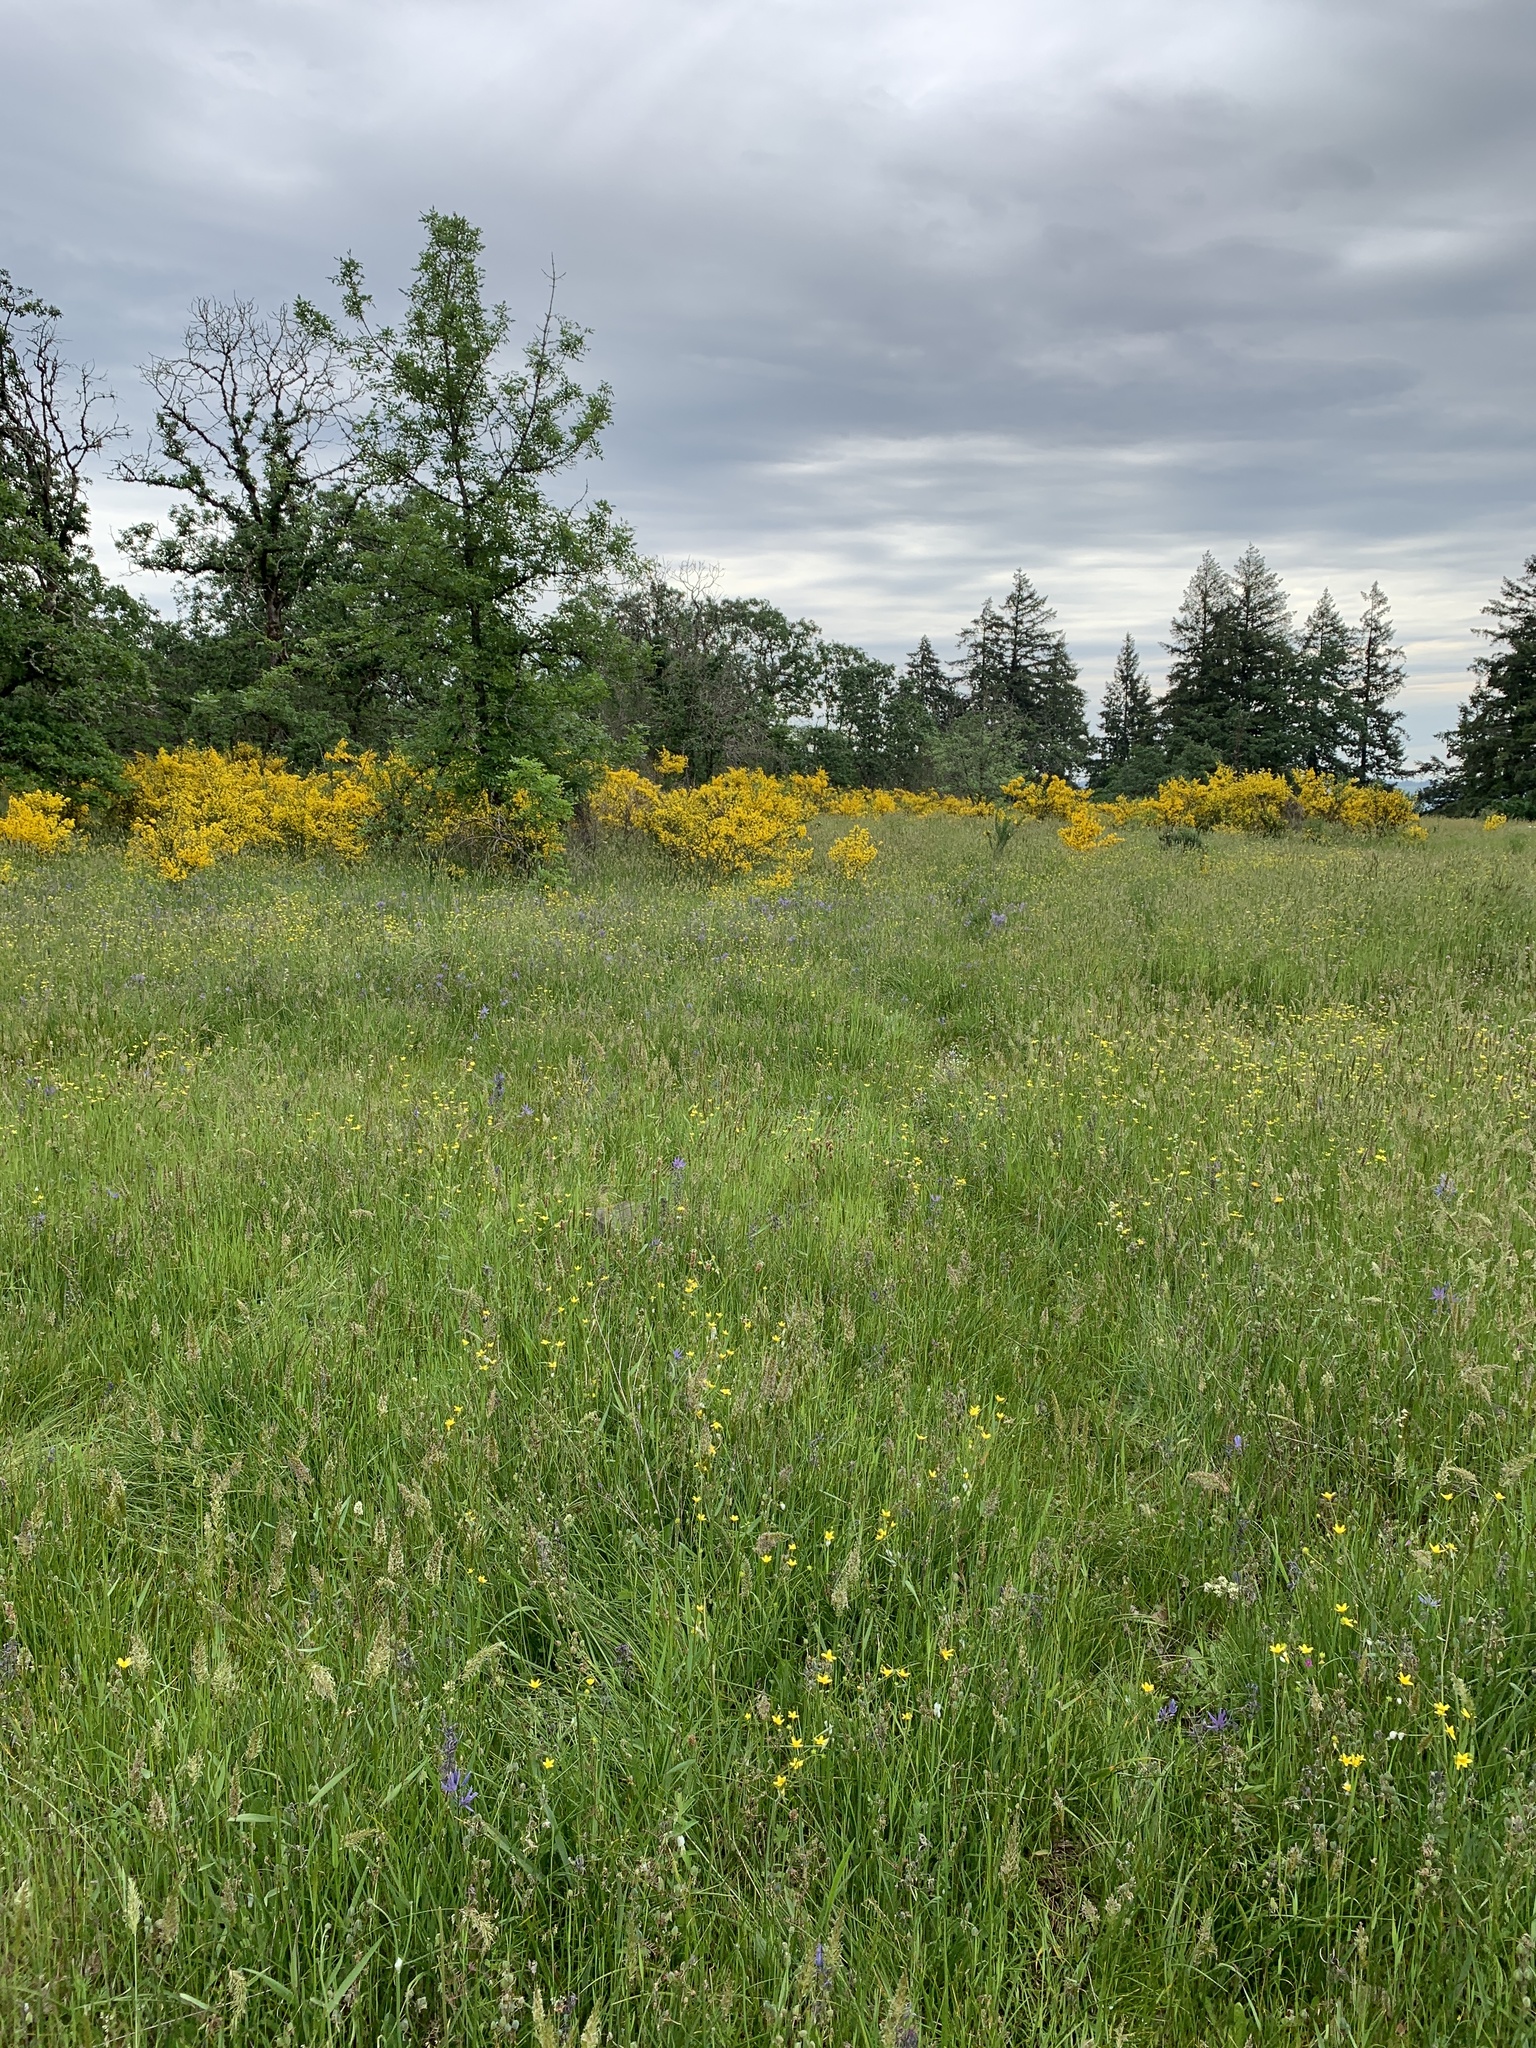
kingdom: Plantae
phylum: Tracheophyta
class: Magnoliopsida
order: Fabales
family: Fabaceae
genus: Cytisus
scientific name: Cytisus scoparius
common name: Scotch broom
